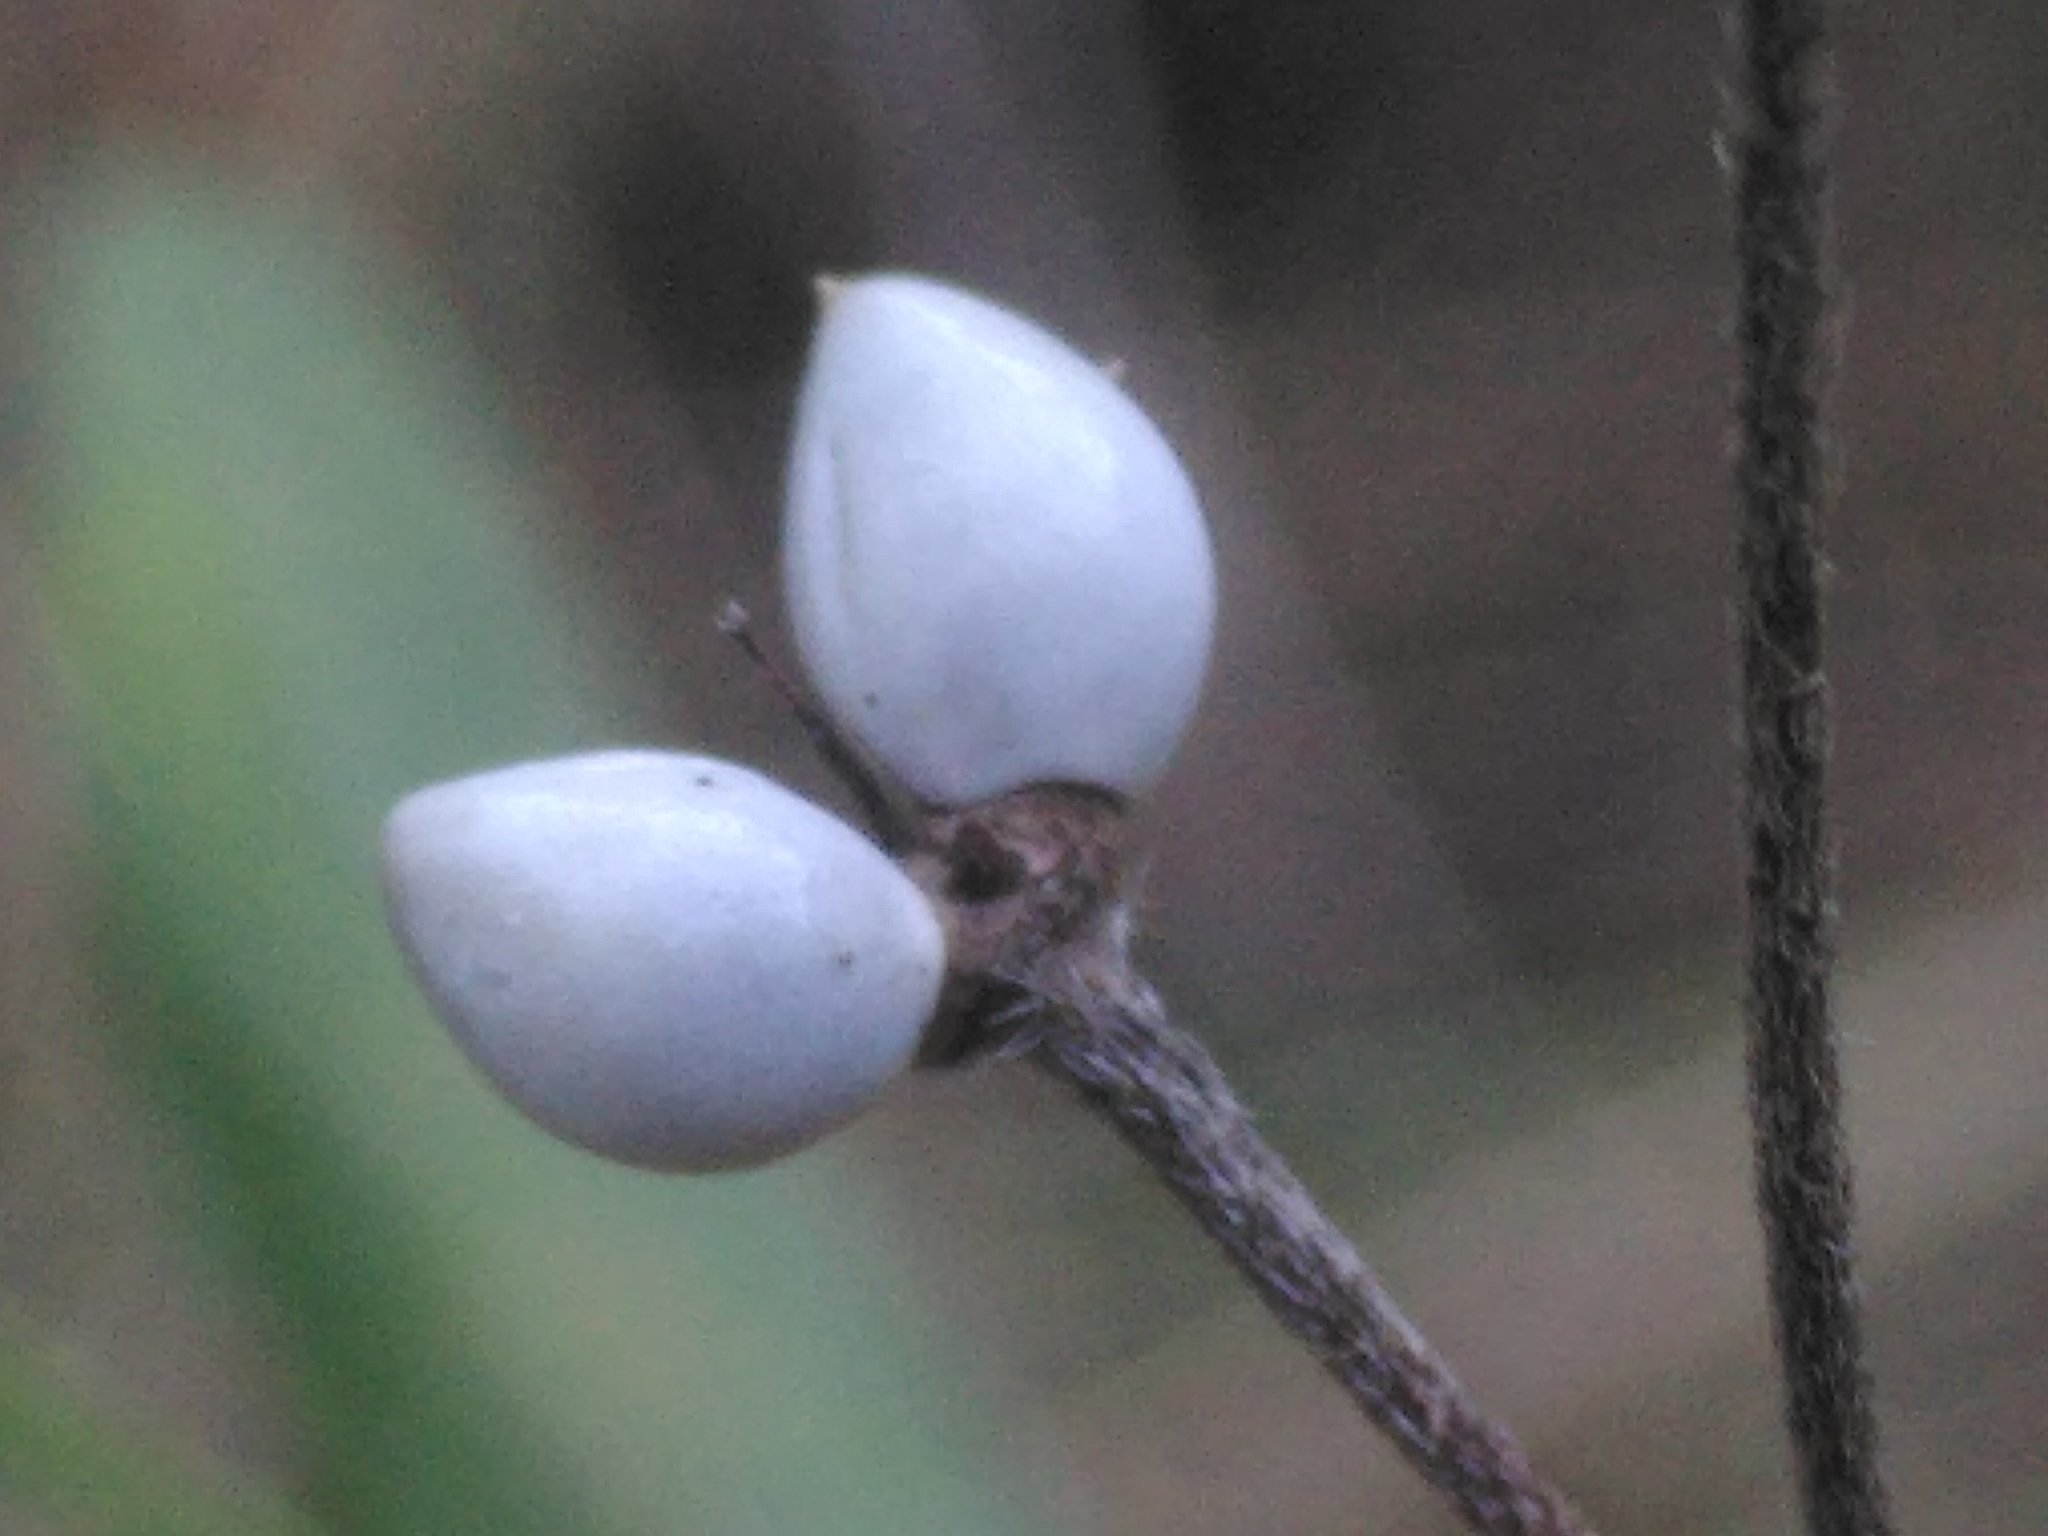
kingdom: Plantae
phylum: Tracheophyta
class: Magnoliopsida
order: Boraginales
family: Boraginaceae
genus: Lithospermum
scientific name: Lithospermum officinale
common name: Common gromwell
